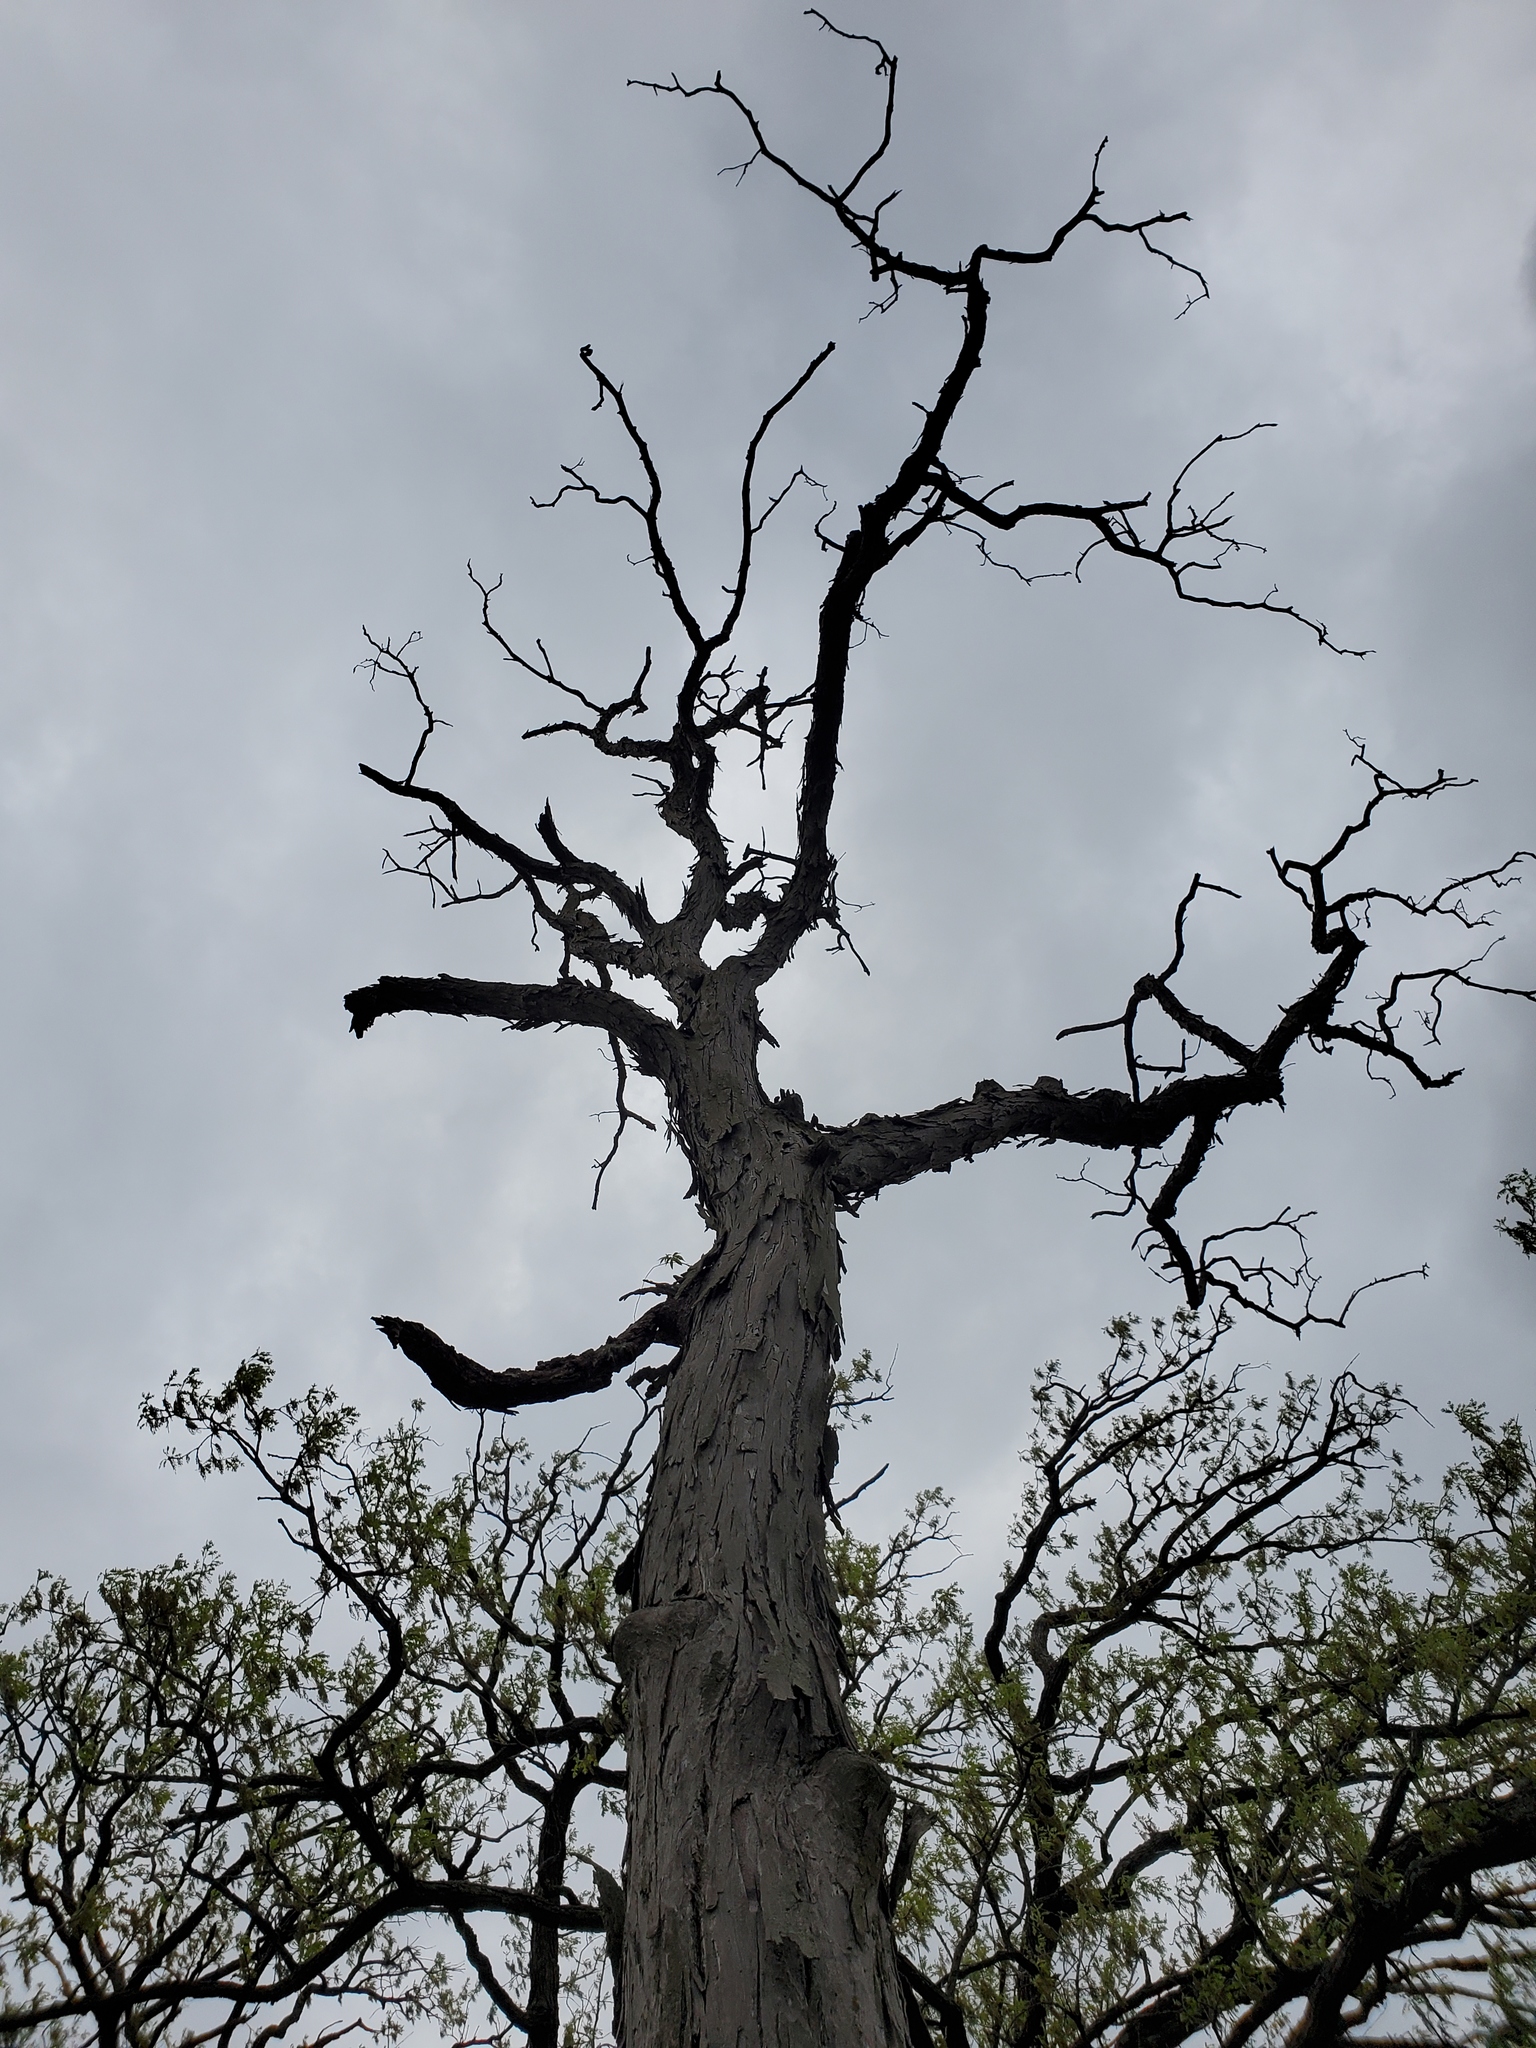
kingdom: Plantae
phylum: Tracheophyta
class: Magnoliopsida
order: Fagales
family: Juglandaceae
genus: Carya
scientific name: Carya ovata
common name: Shagbark hickory
